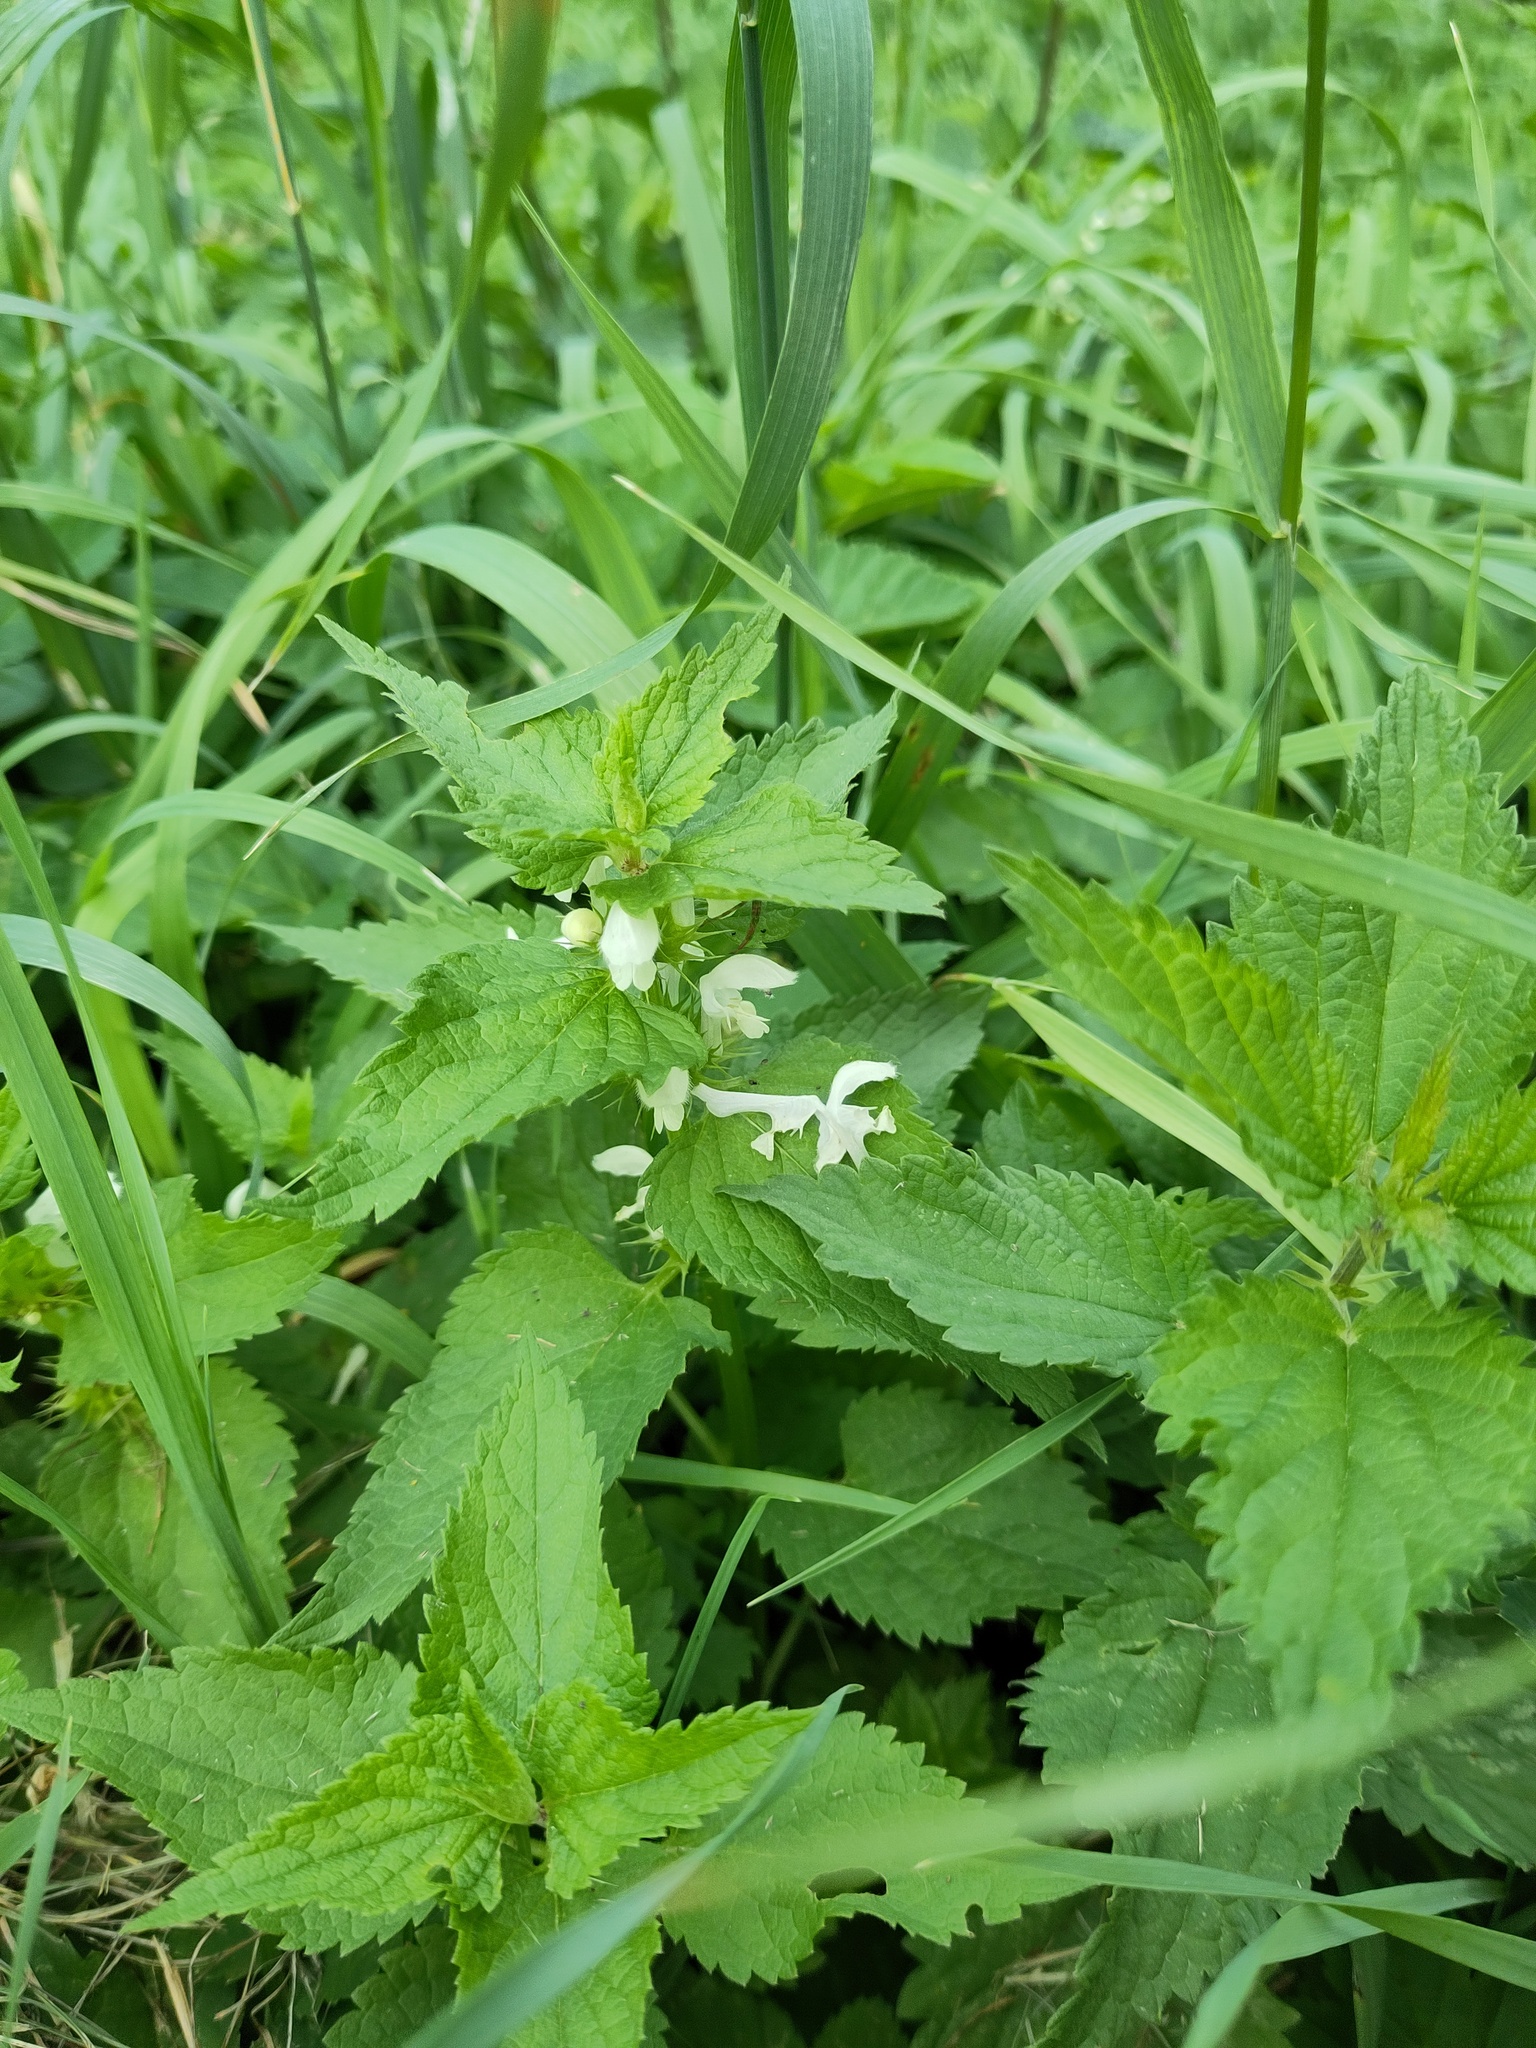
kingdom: Plantae
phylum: Tracheophyta
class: Magnoliopsida
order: Lamiales
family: Lamiaceae
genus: Lamium
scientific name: Lamium album
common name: White dead-nettle
